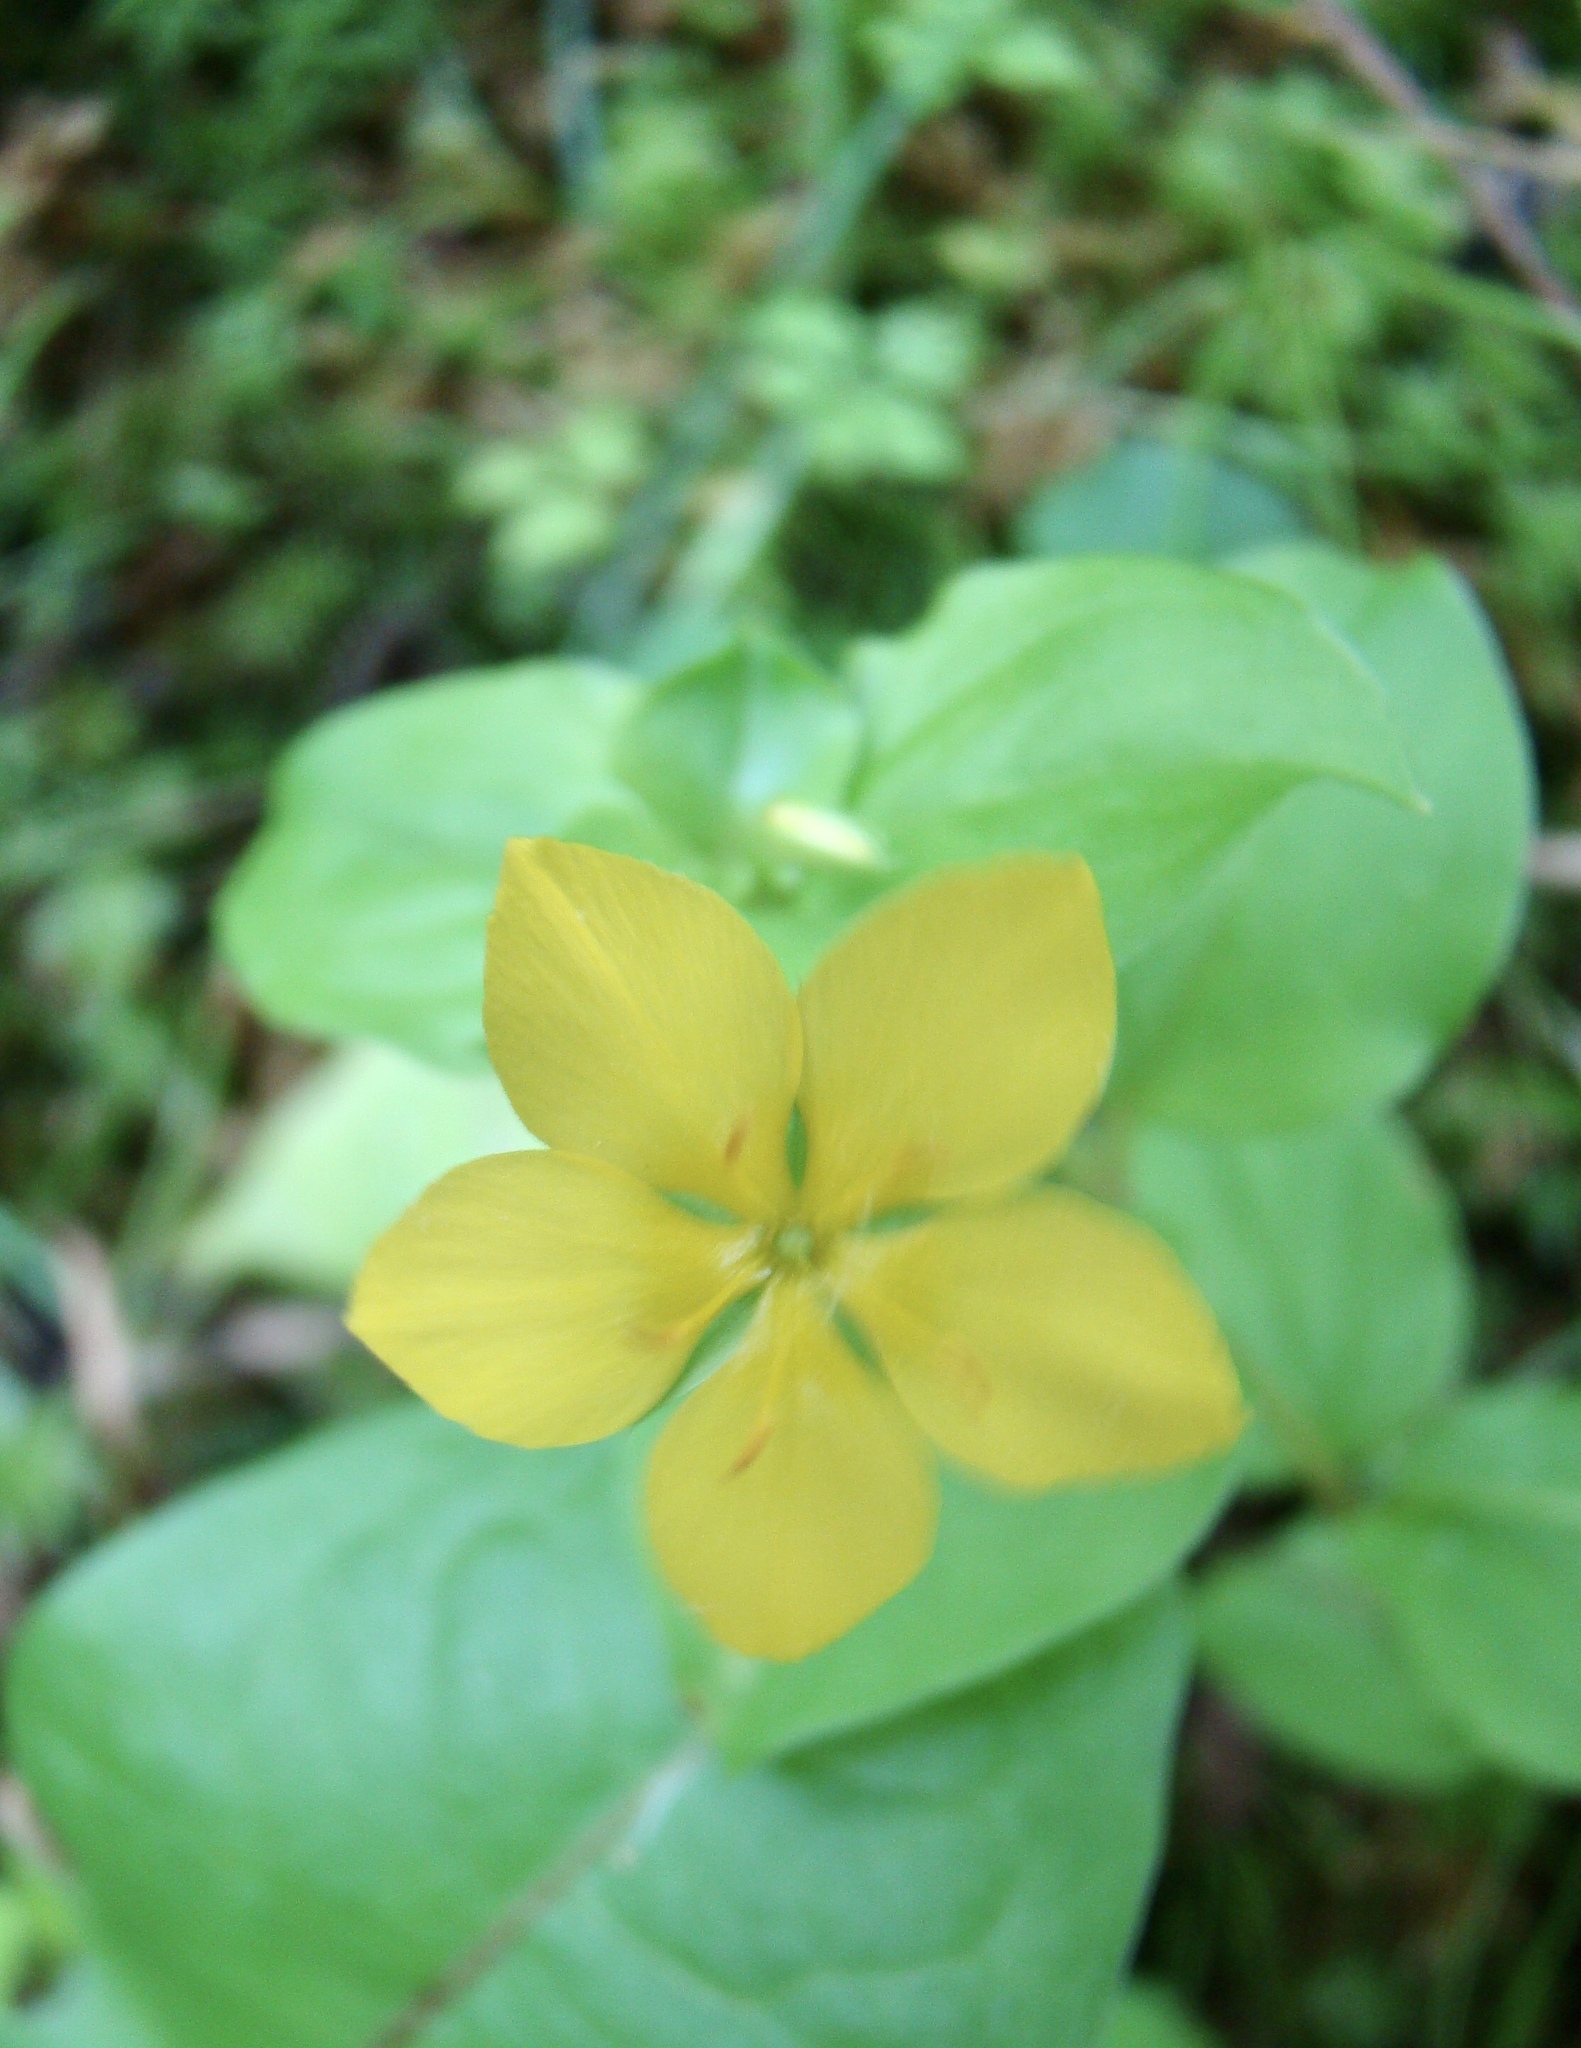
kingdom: Plantae
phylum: Tracheophyta
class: Magnoliopsida
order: Ericales
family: Primulaceae
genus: Lysimachia
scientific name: Lysimachia nemorum
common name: Yellow pimpernel
